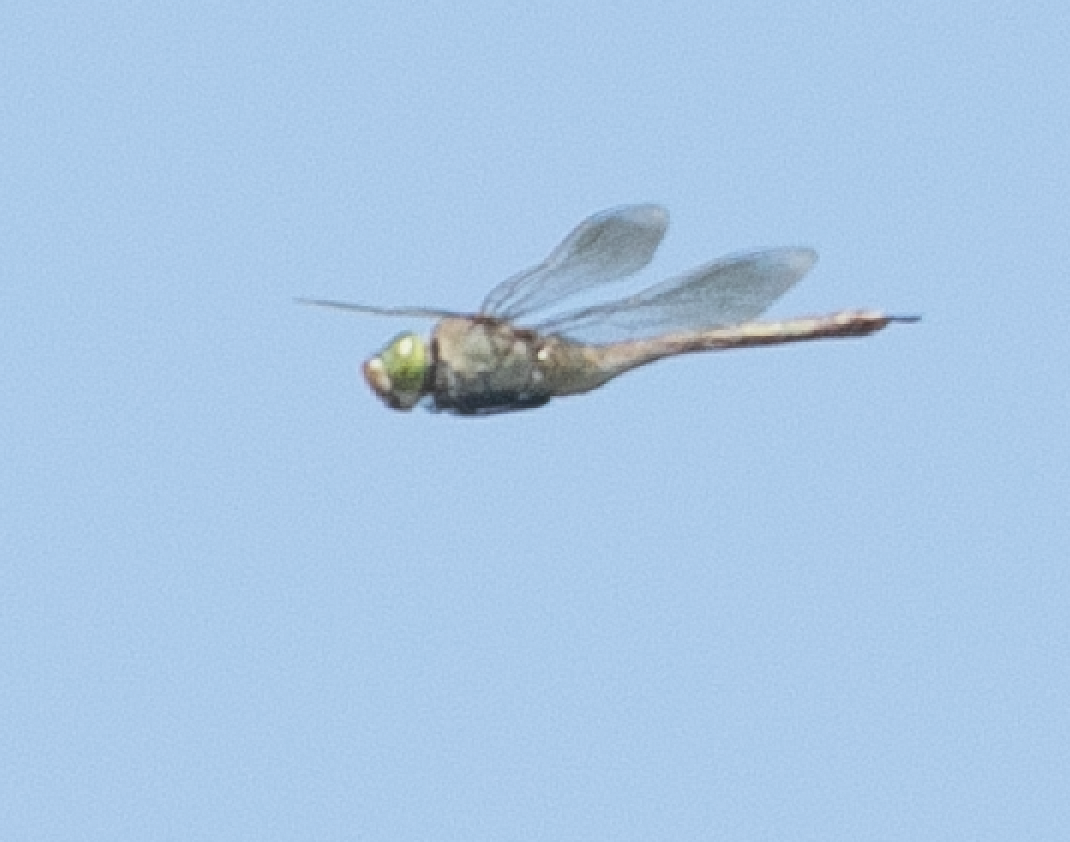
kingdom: Animalia
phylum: Arthropoda
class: Insecta
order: Odonata
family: Aeshnidae
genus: Anax
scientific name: Anax parthenope
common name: Lesser emperor
